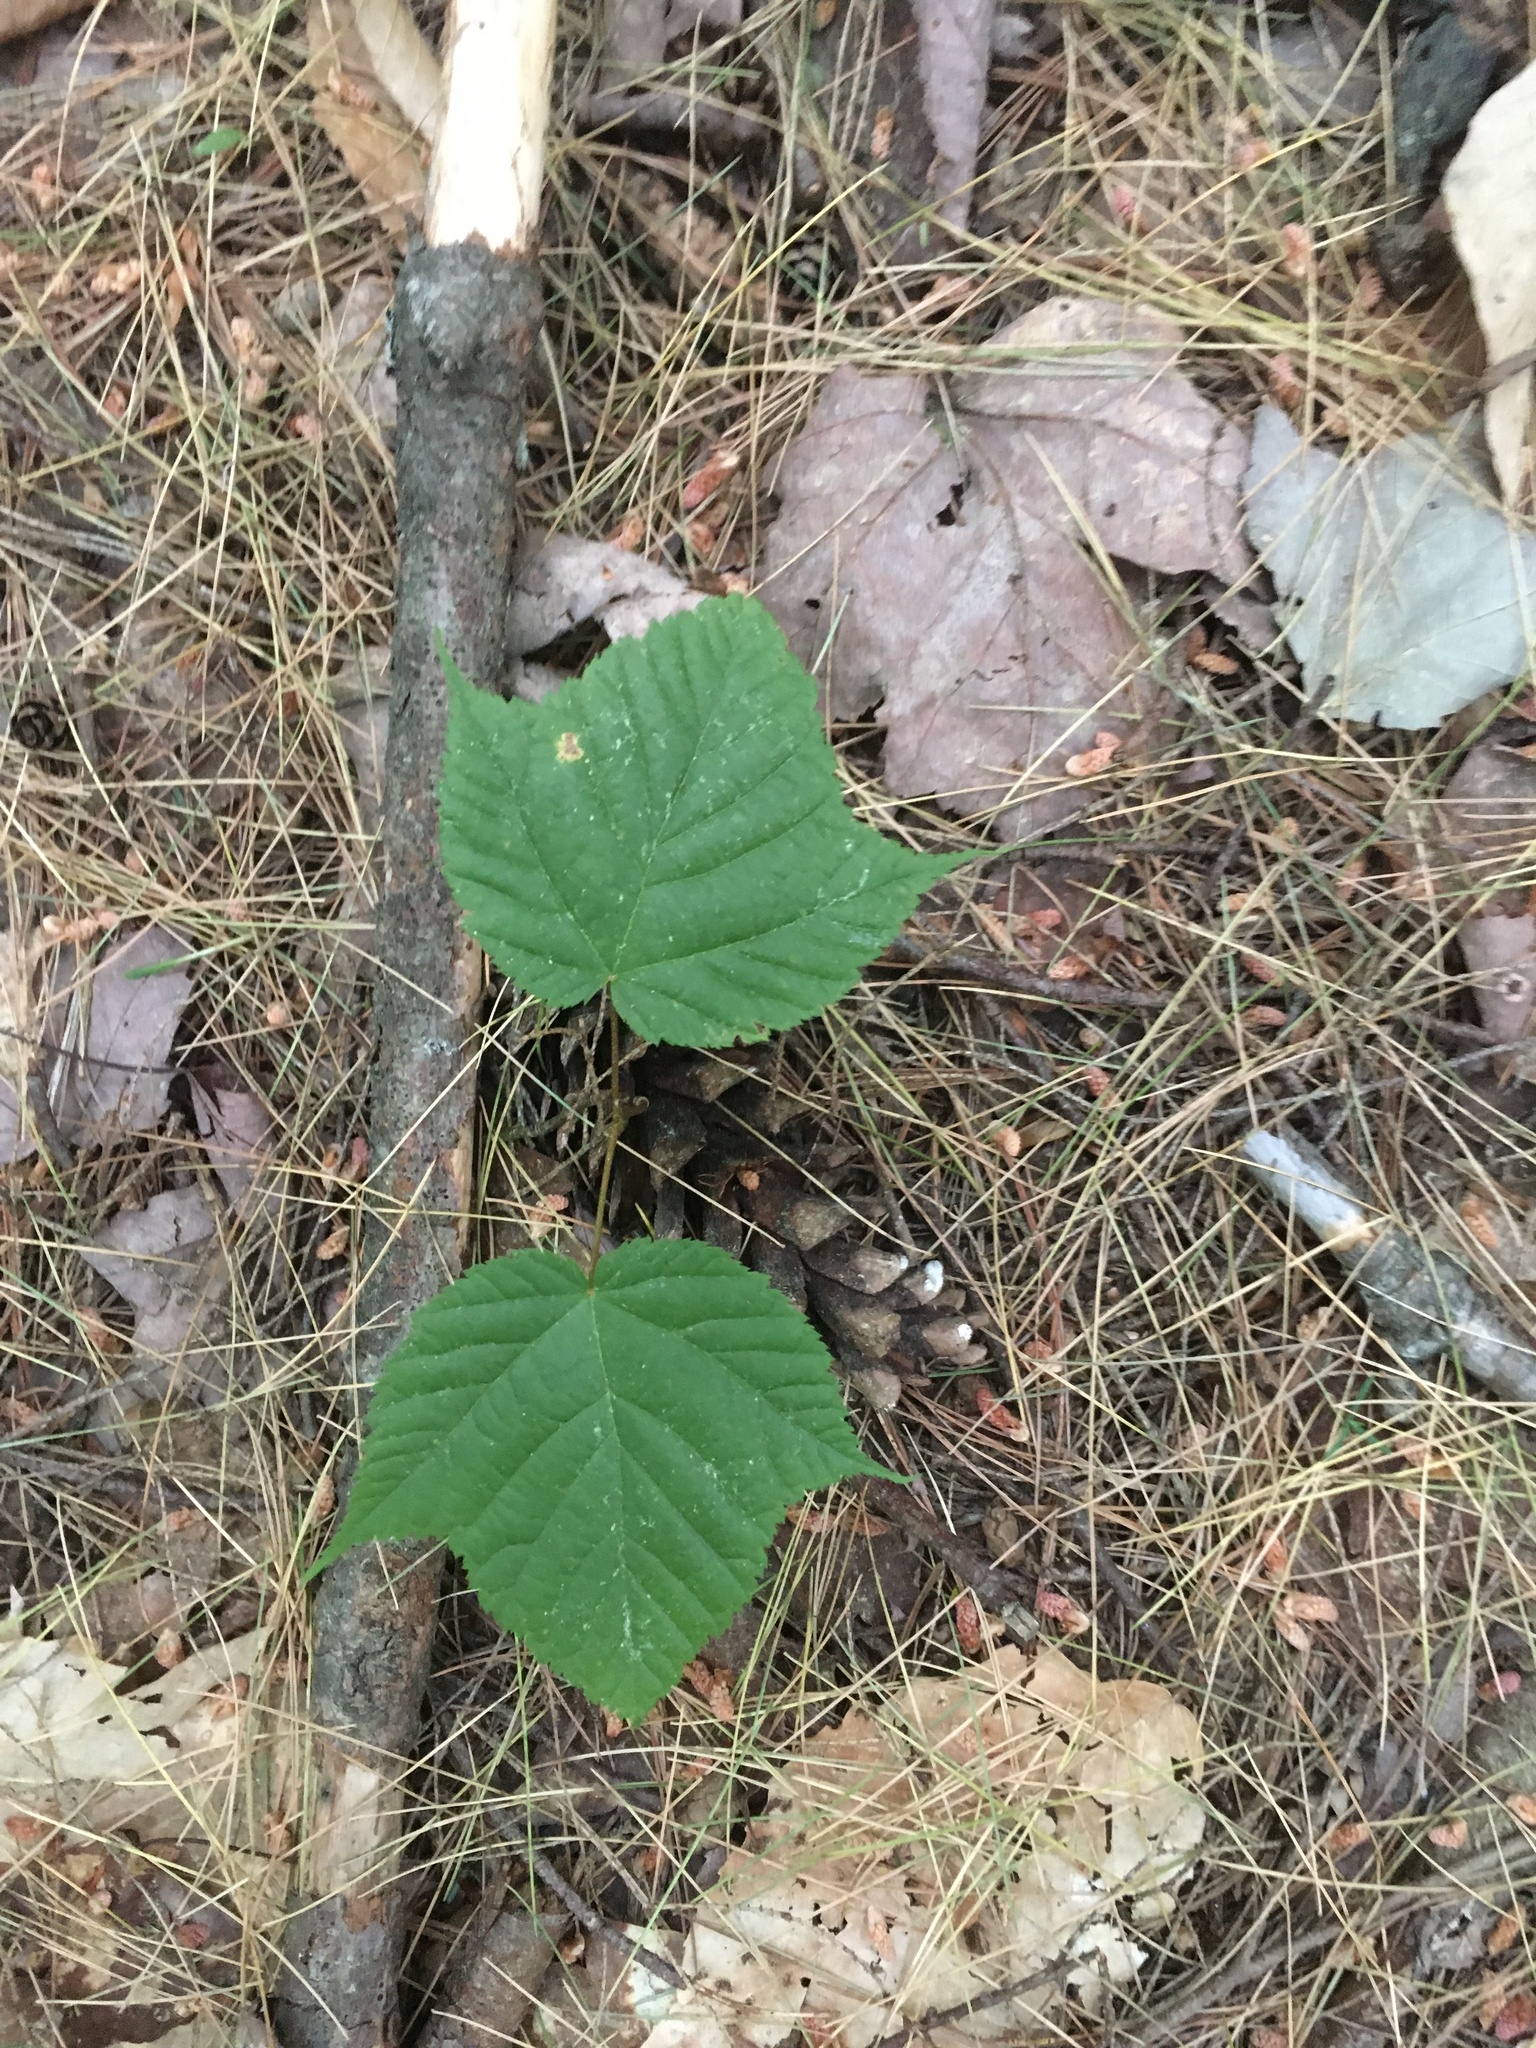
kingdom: Plantae
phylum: Tracheophyta
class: Magnoliopsida
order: Sapindales
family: Sapindaceae
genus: Acer
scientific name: Acer pensylvanicum
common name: Moosewood
